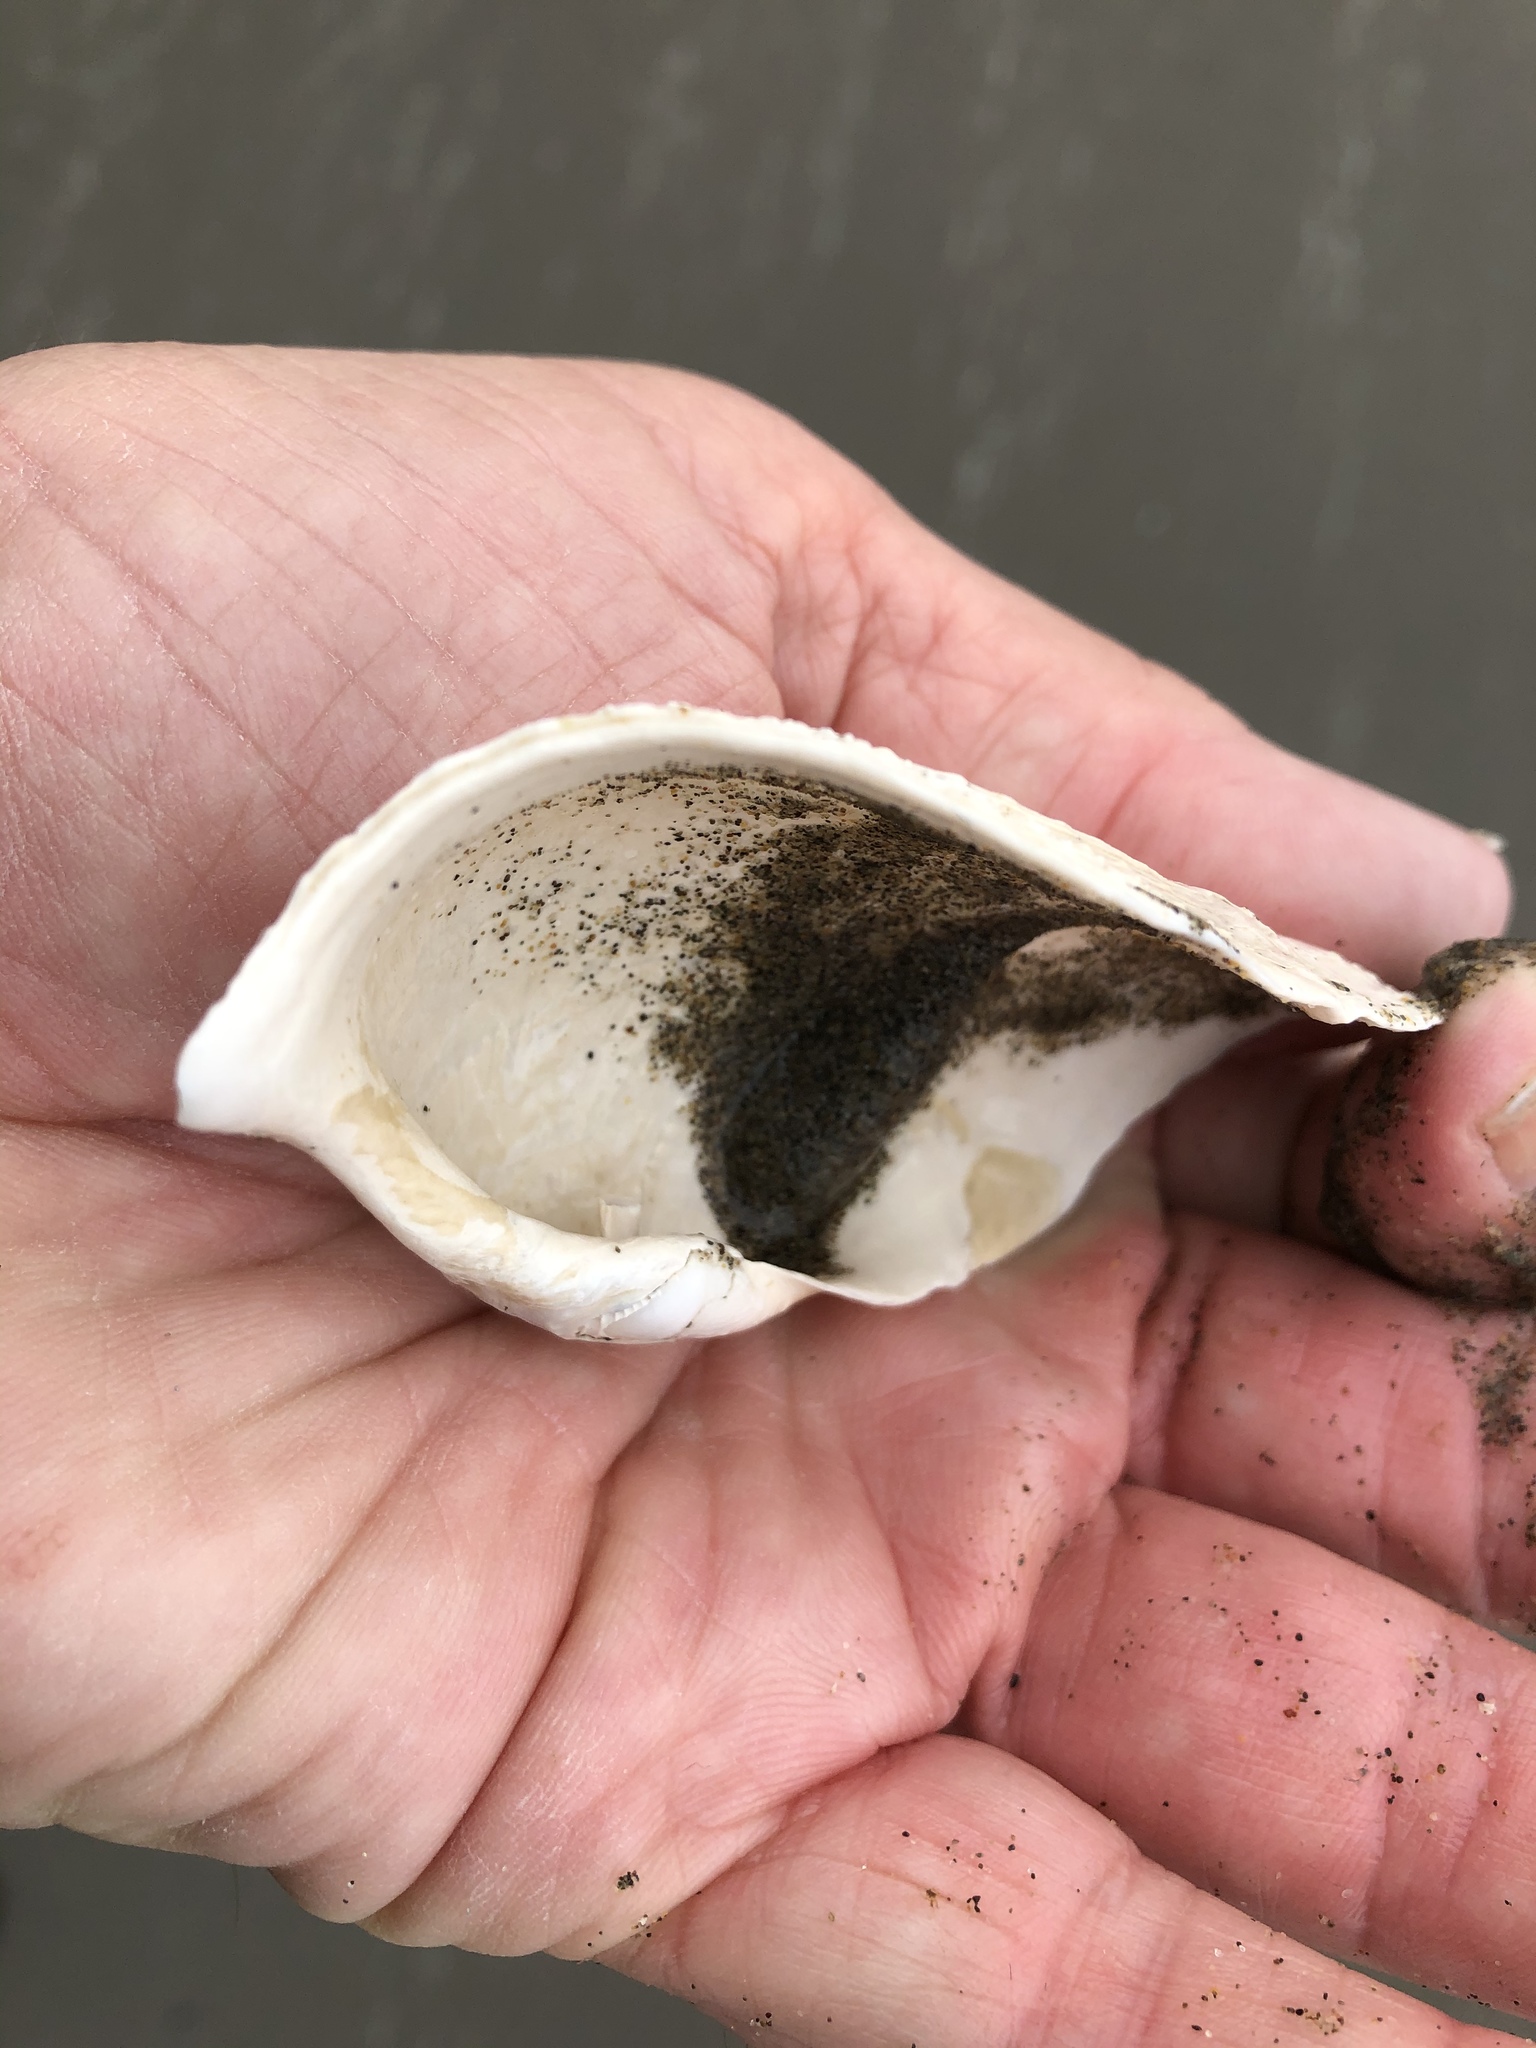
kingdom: Animalia
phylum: Mollusca
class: Bivalvia
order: Myida
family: Pholadidae
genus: Zirfaea
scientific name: Zirfaea pilsbryi
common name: Rough piddock
